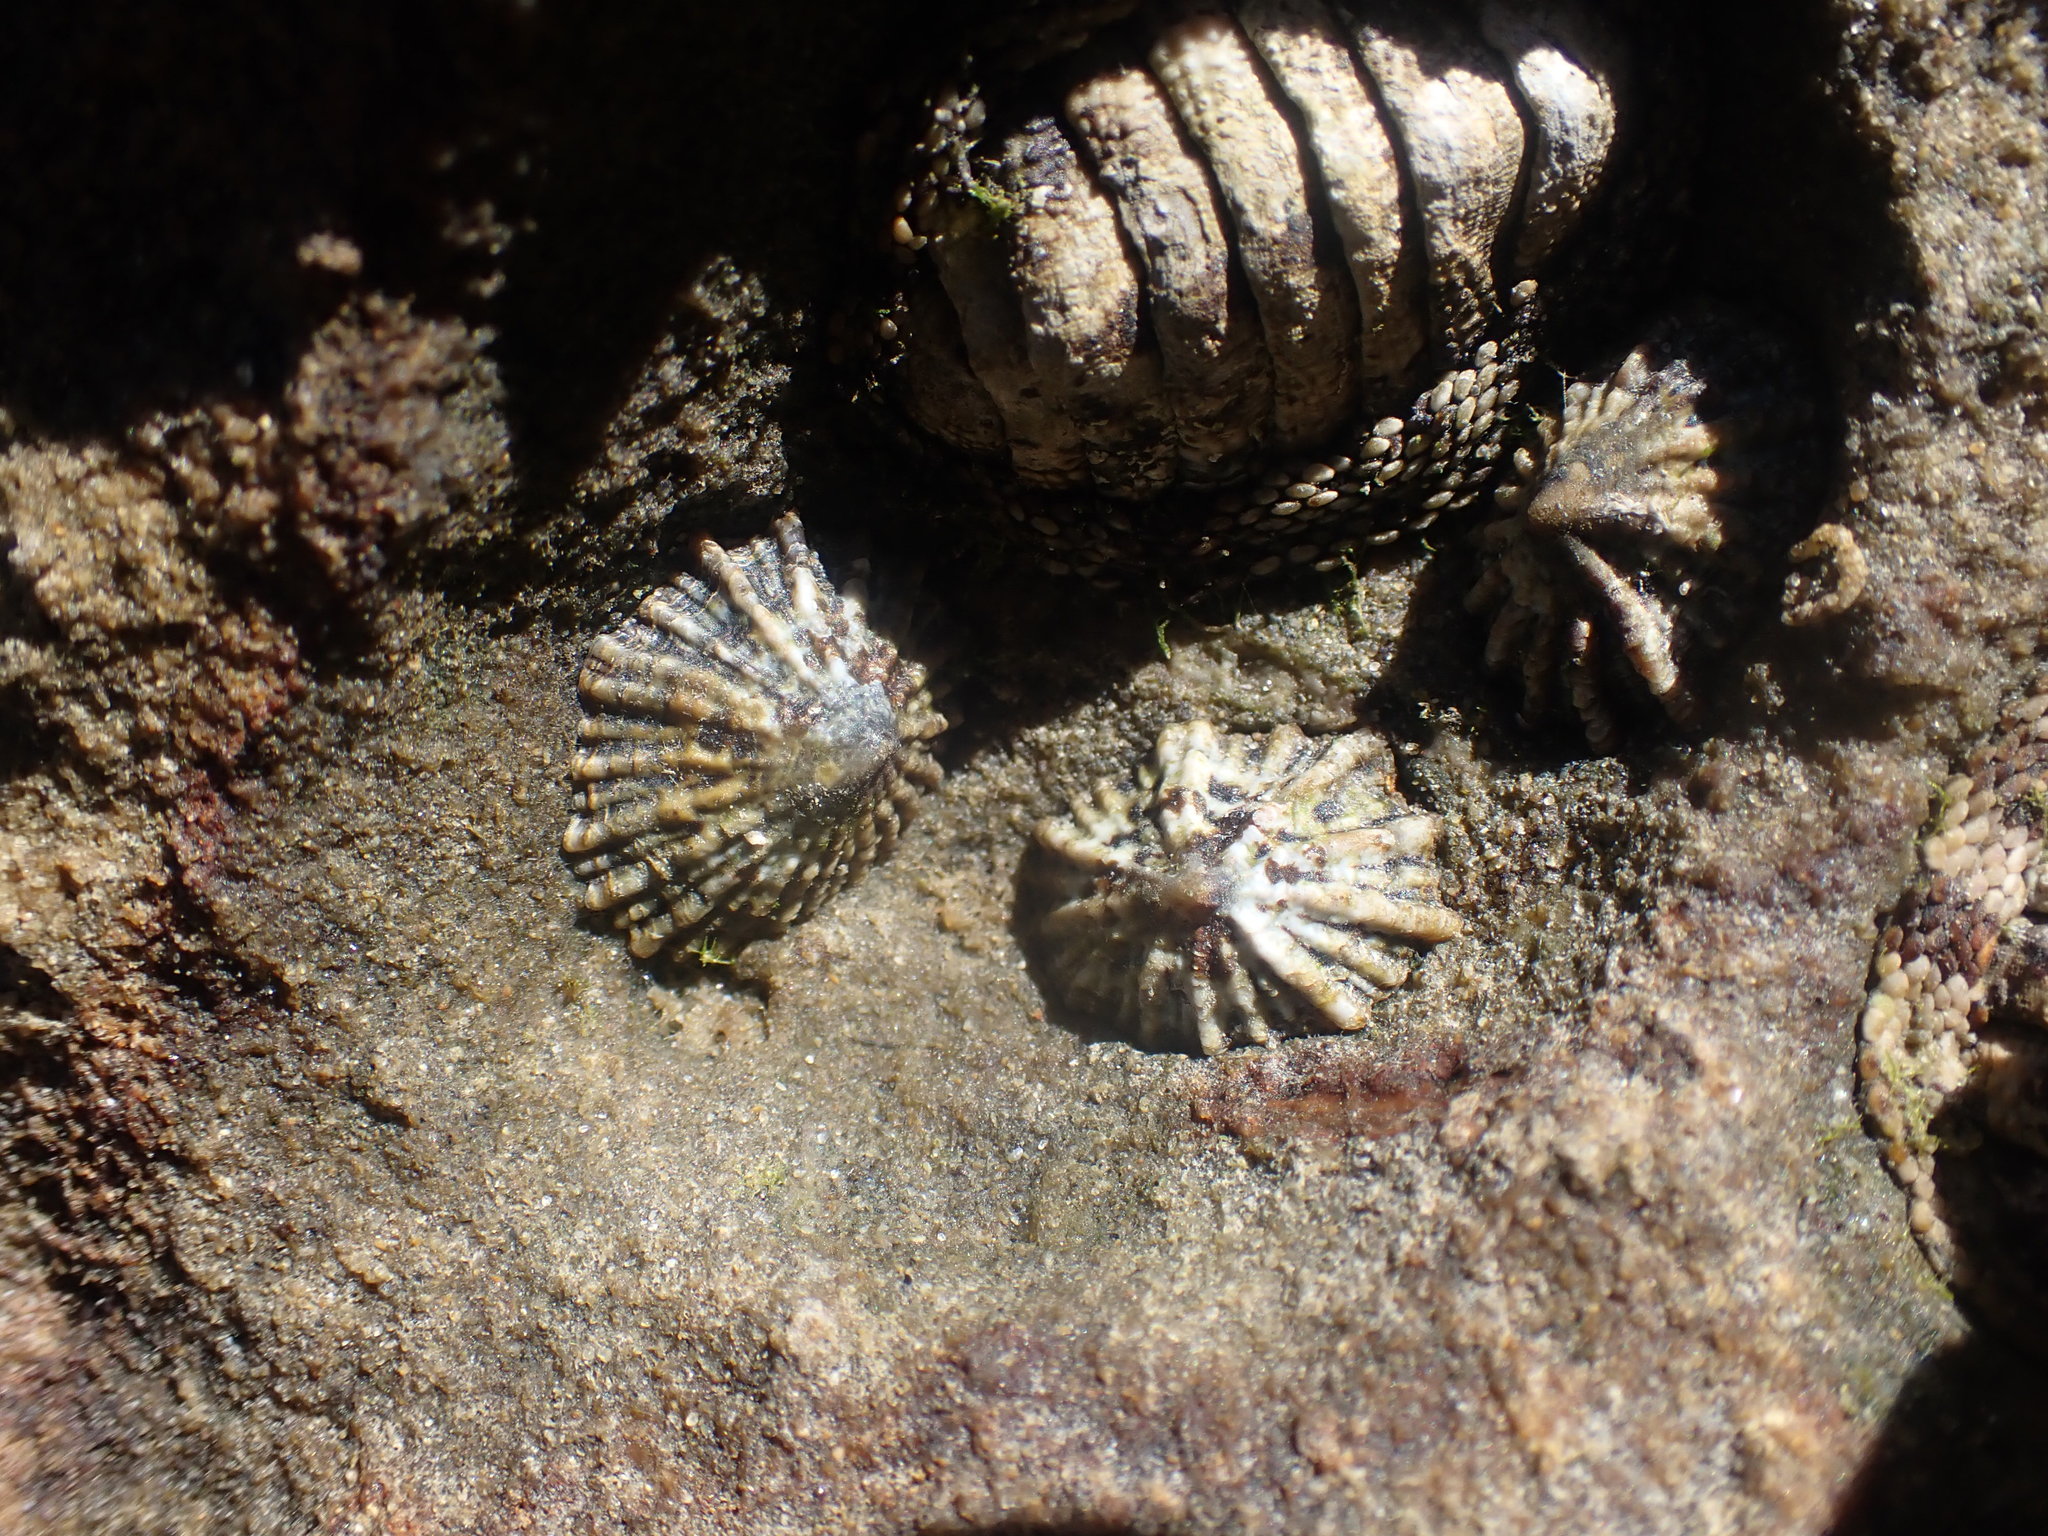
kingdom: Animalia
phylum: Mollusca
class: Gastropoda
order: Siphonariida
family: Siphonariidae
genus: Siphonaria
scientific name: Siphonaria australis
